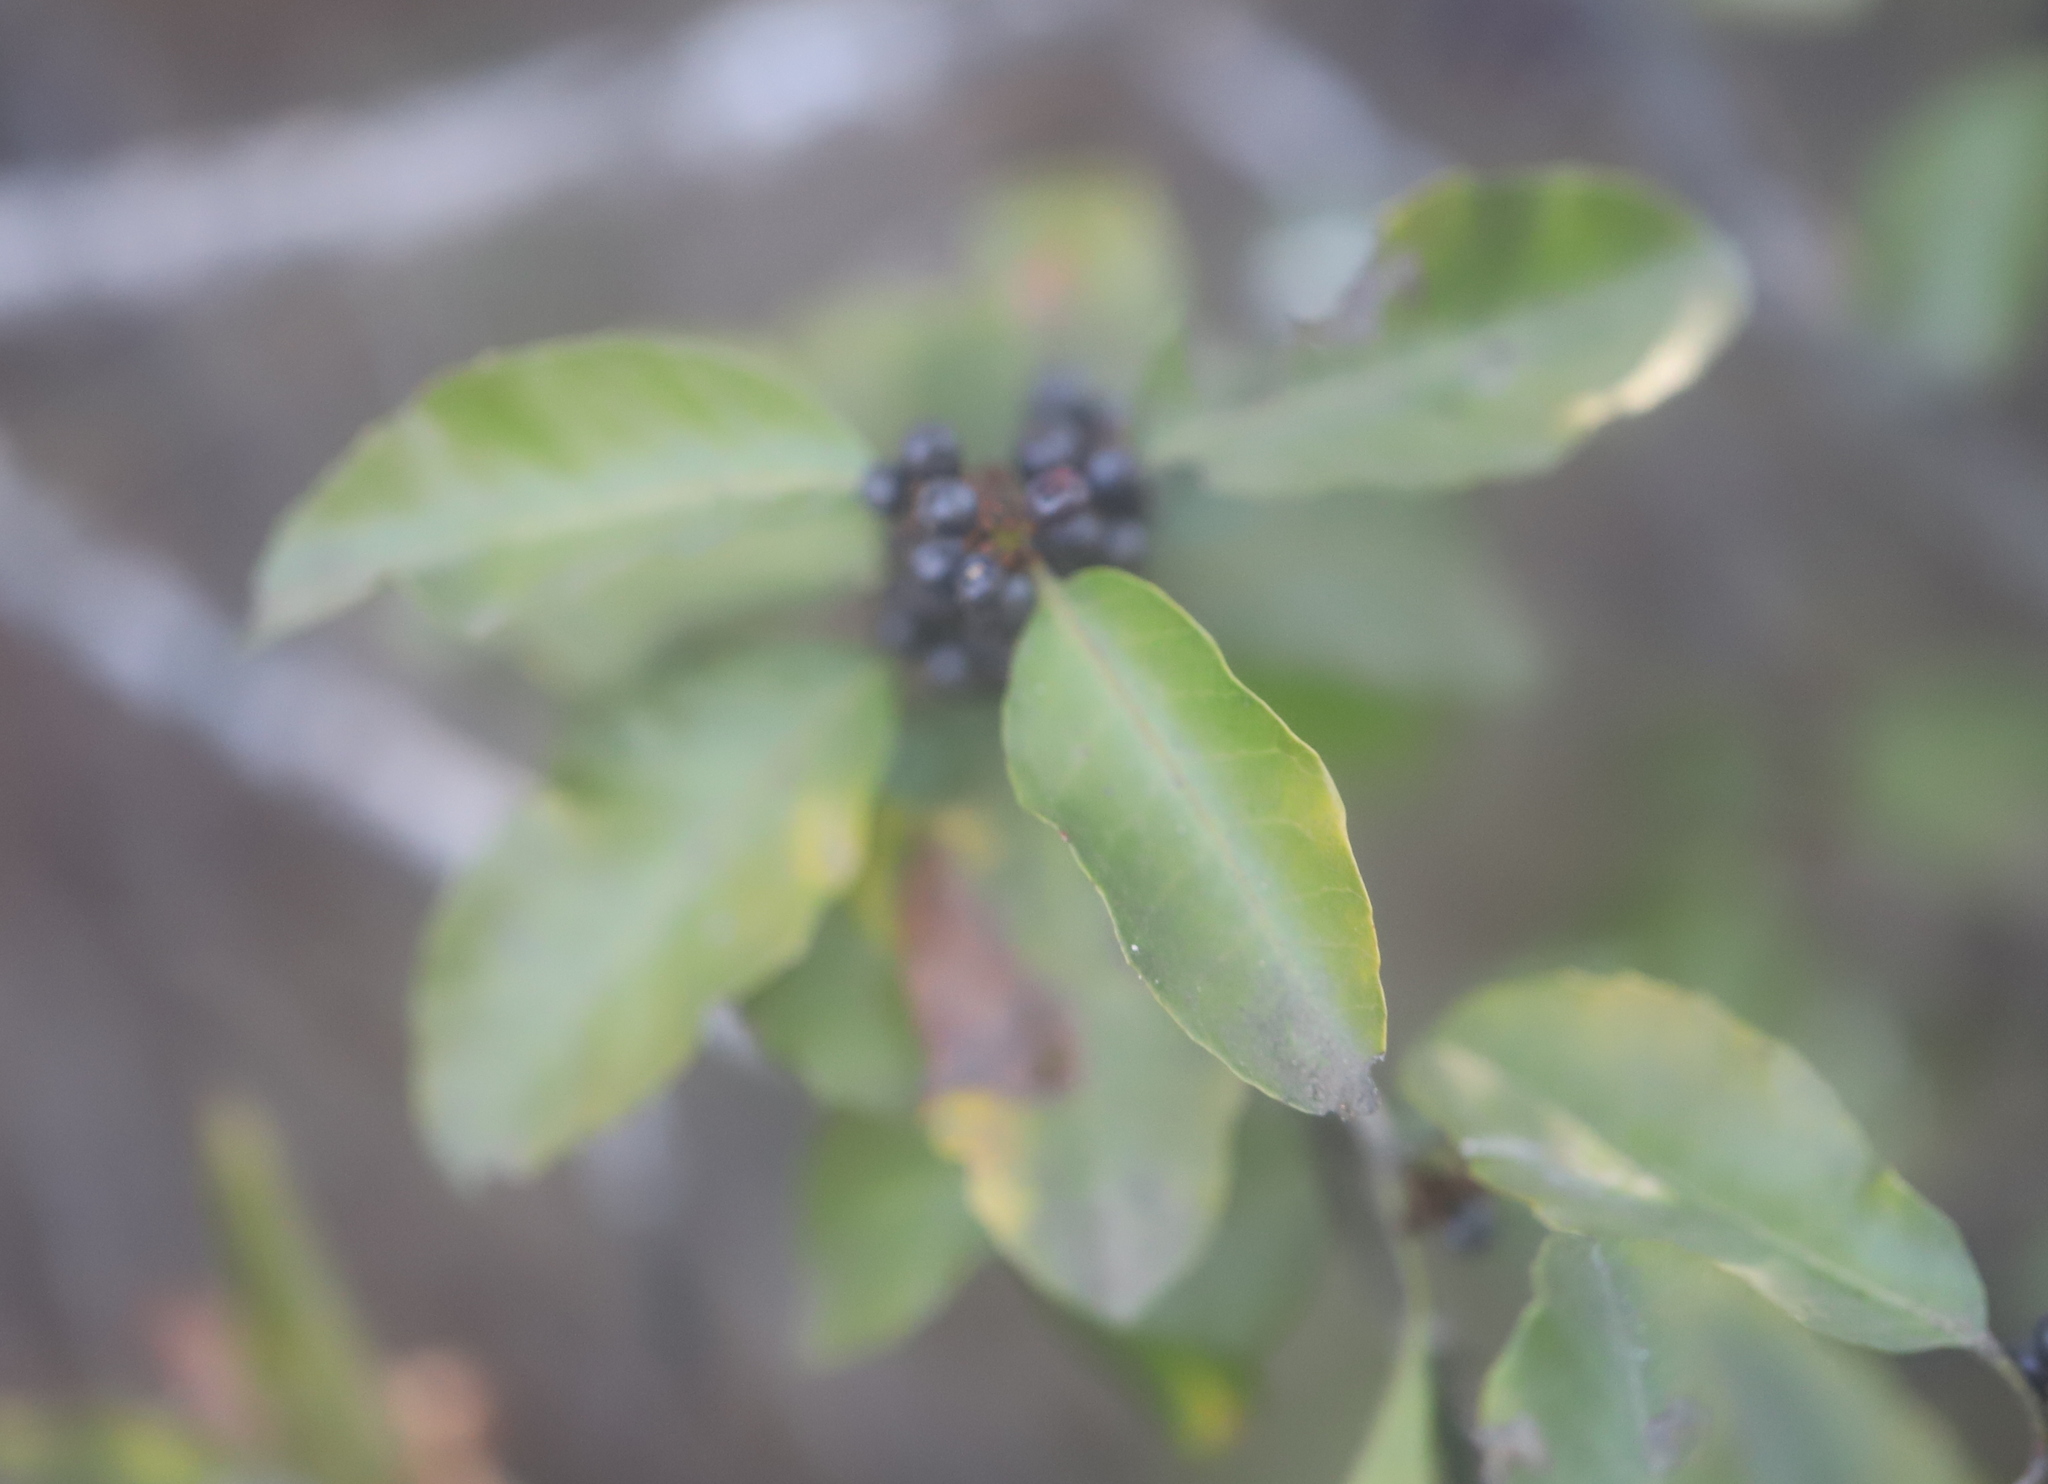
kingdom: Plantae
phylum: Tracheophyta
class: Magnoliopsida
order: Sapindales
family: Anacardiaceae
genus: Schinus
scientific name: Schinus latifolia
